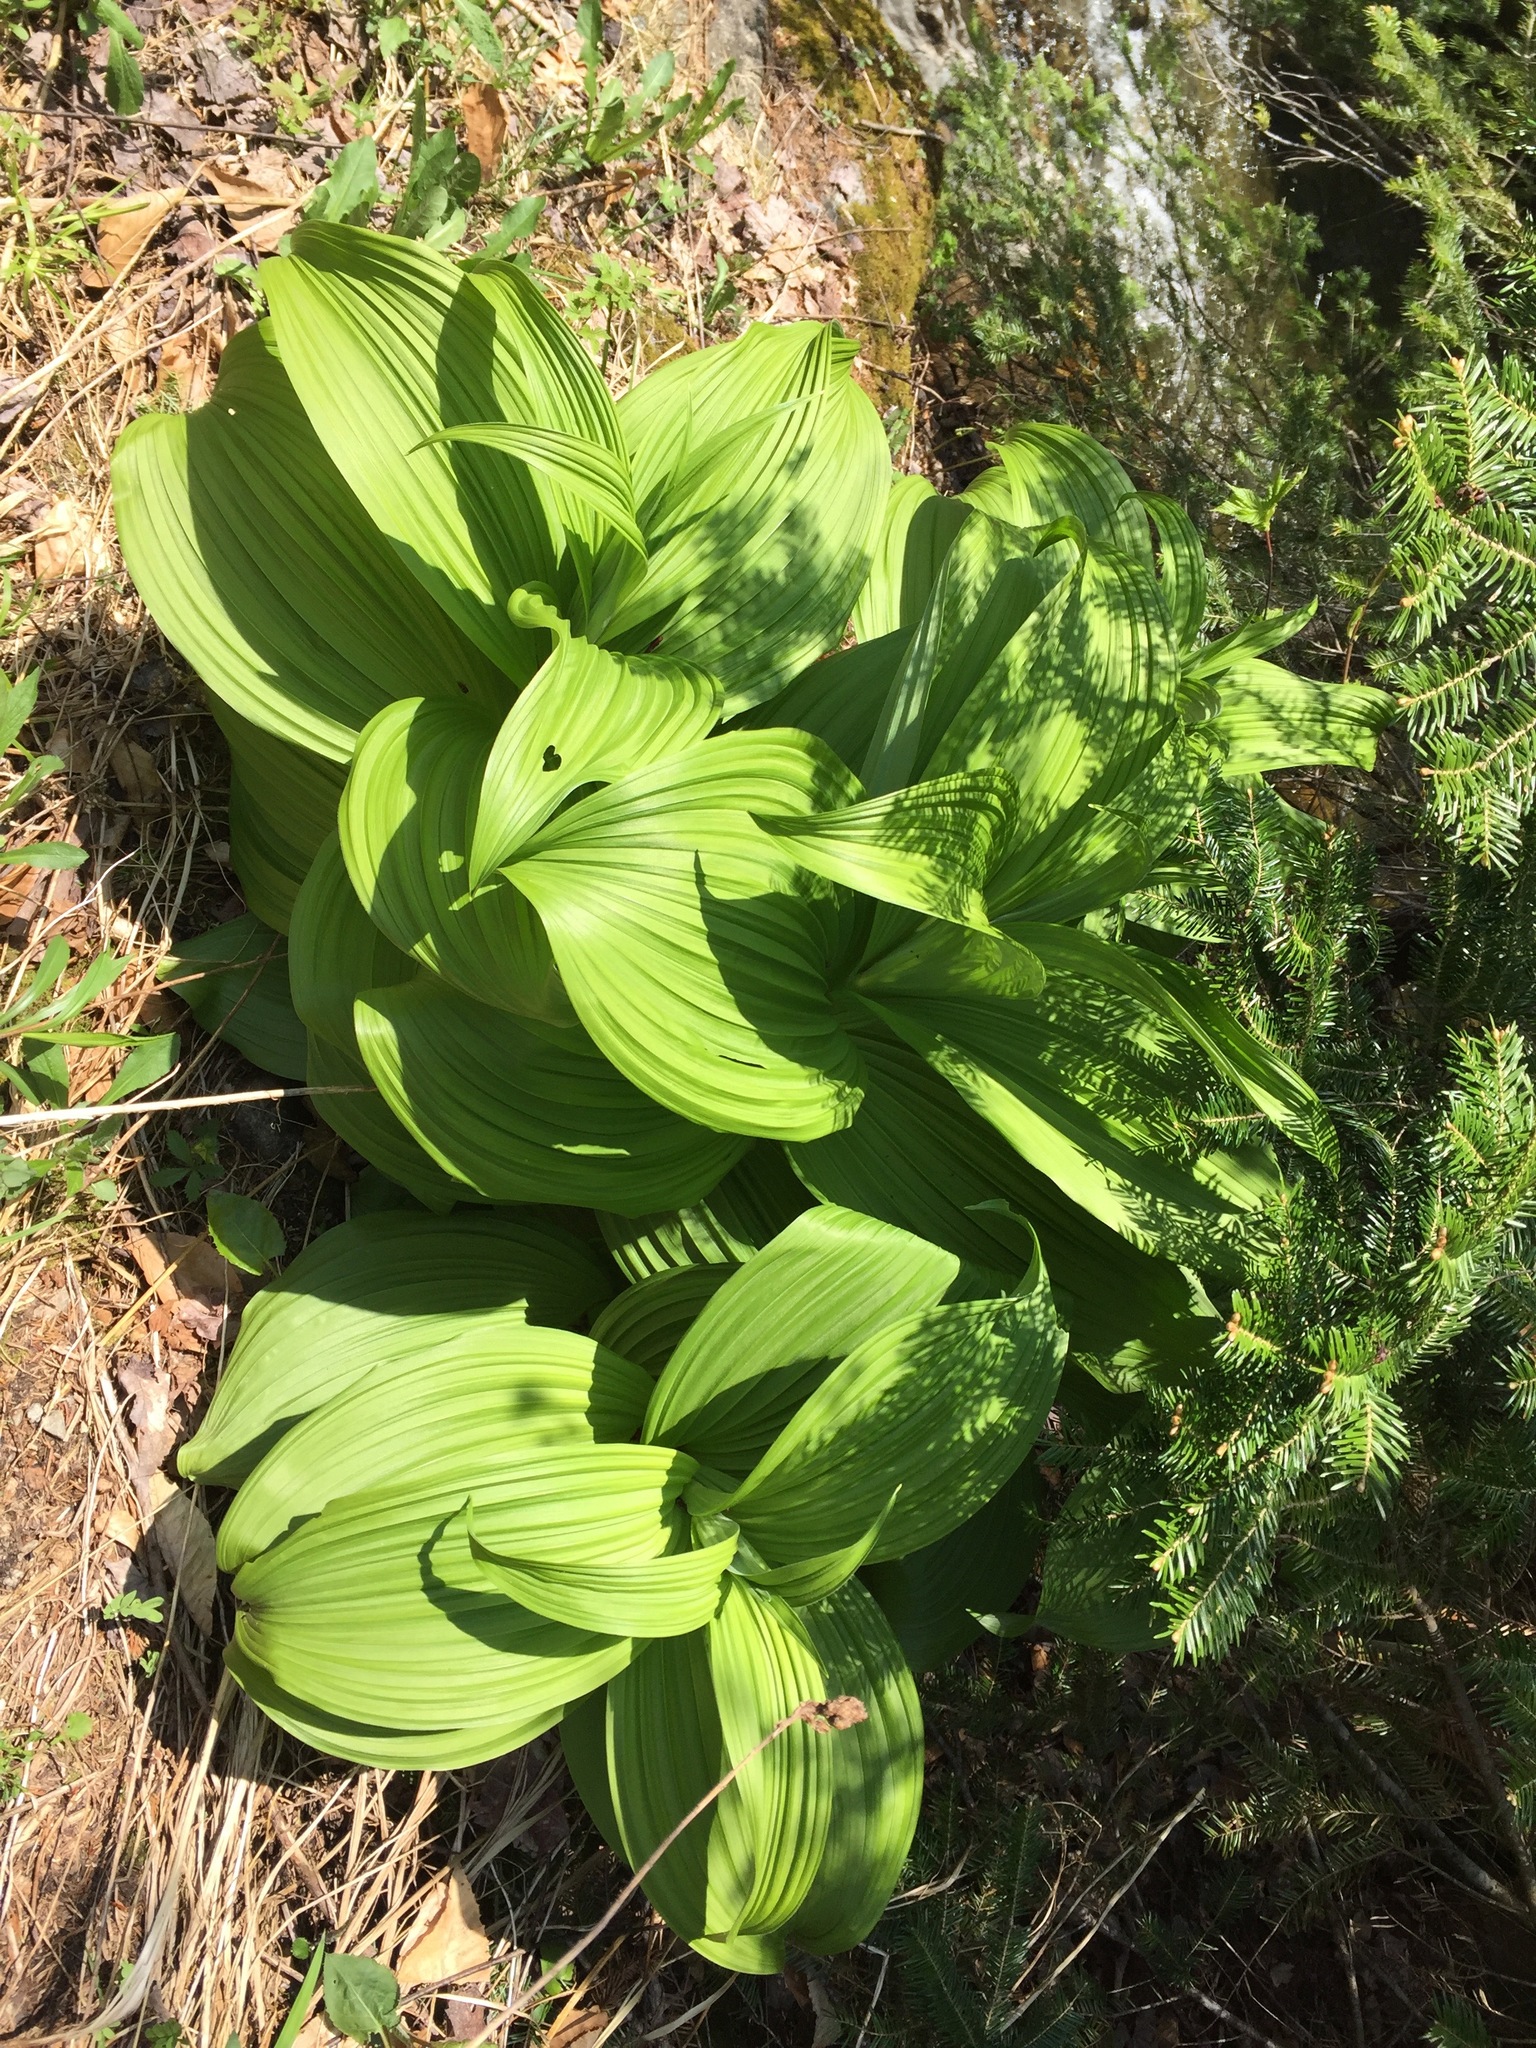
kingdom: Plantae
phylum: Tracheophyta
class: Liliopsida
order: Liliales
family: Melanthiaceae
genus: Veratrum
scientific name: Veratrum viride
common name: American false hellebore
